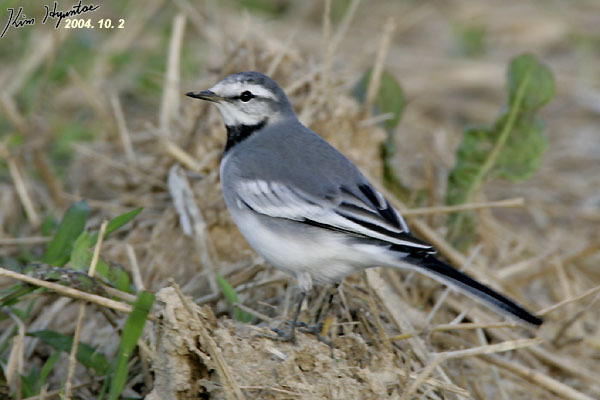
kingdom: Animalia
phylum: Chordata
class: Aves
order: Passeriformes
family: Motacillidae
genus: Motacilla
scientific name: Motacilla alba
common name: White wagtail
